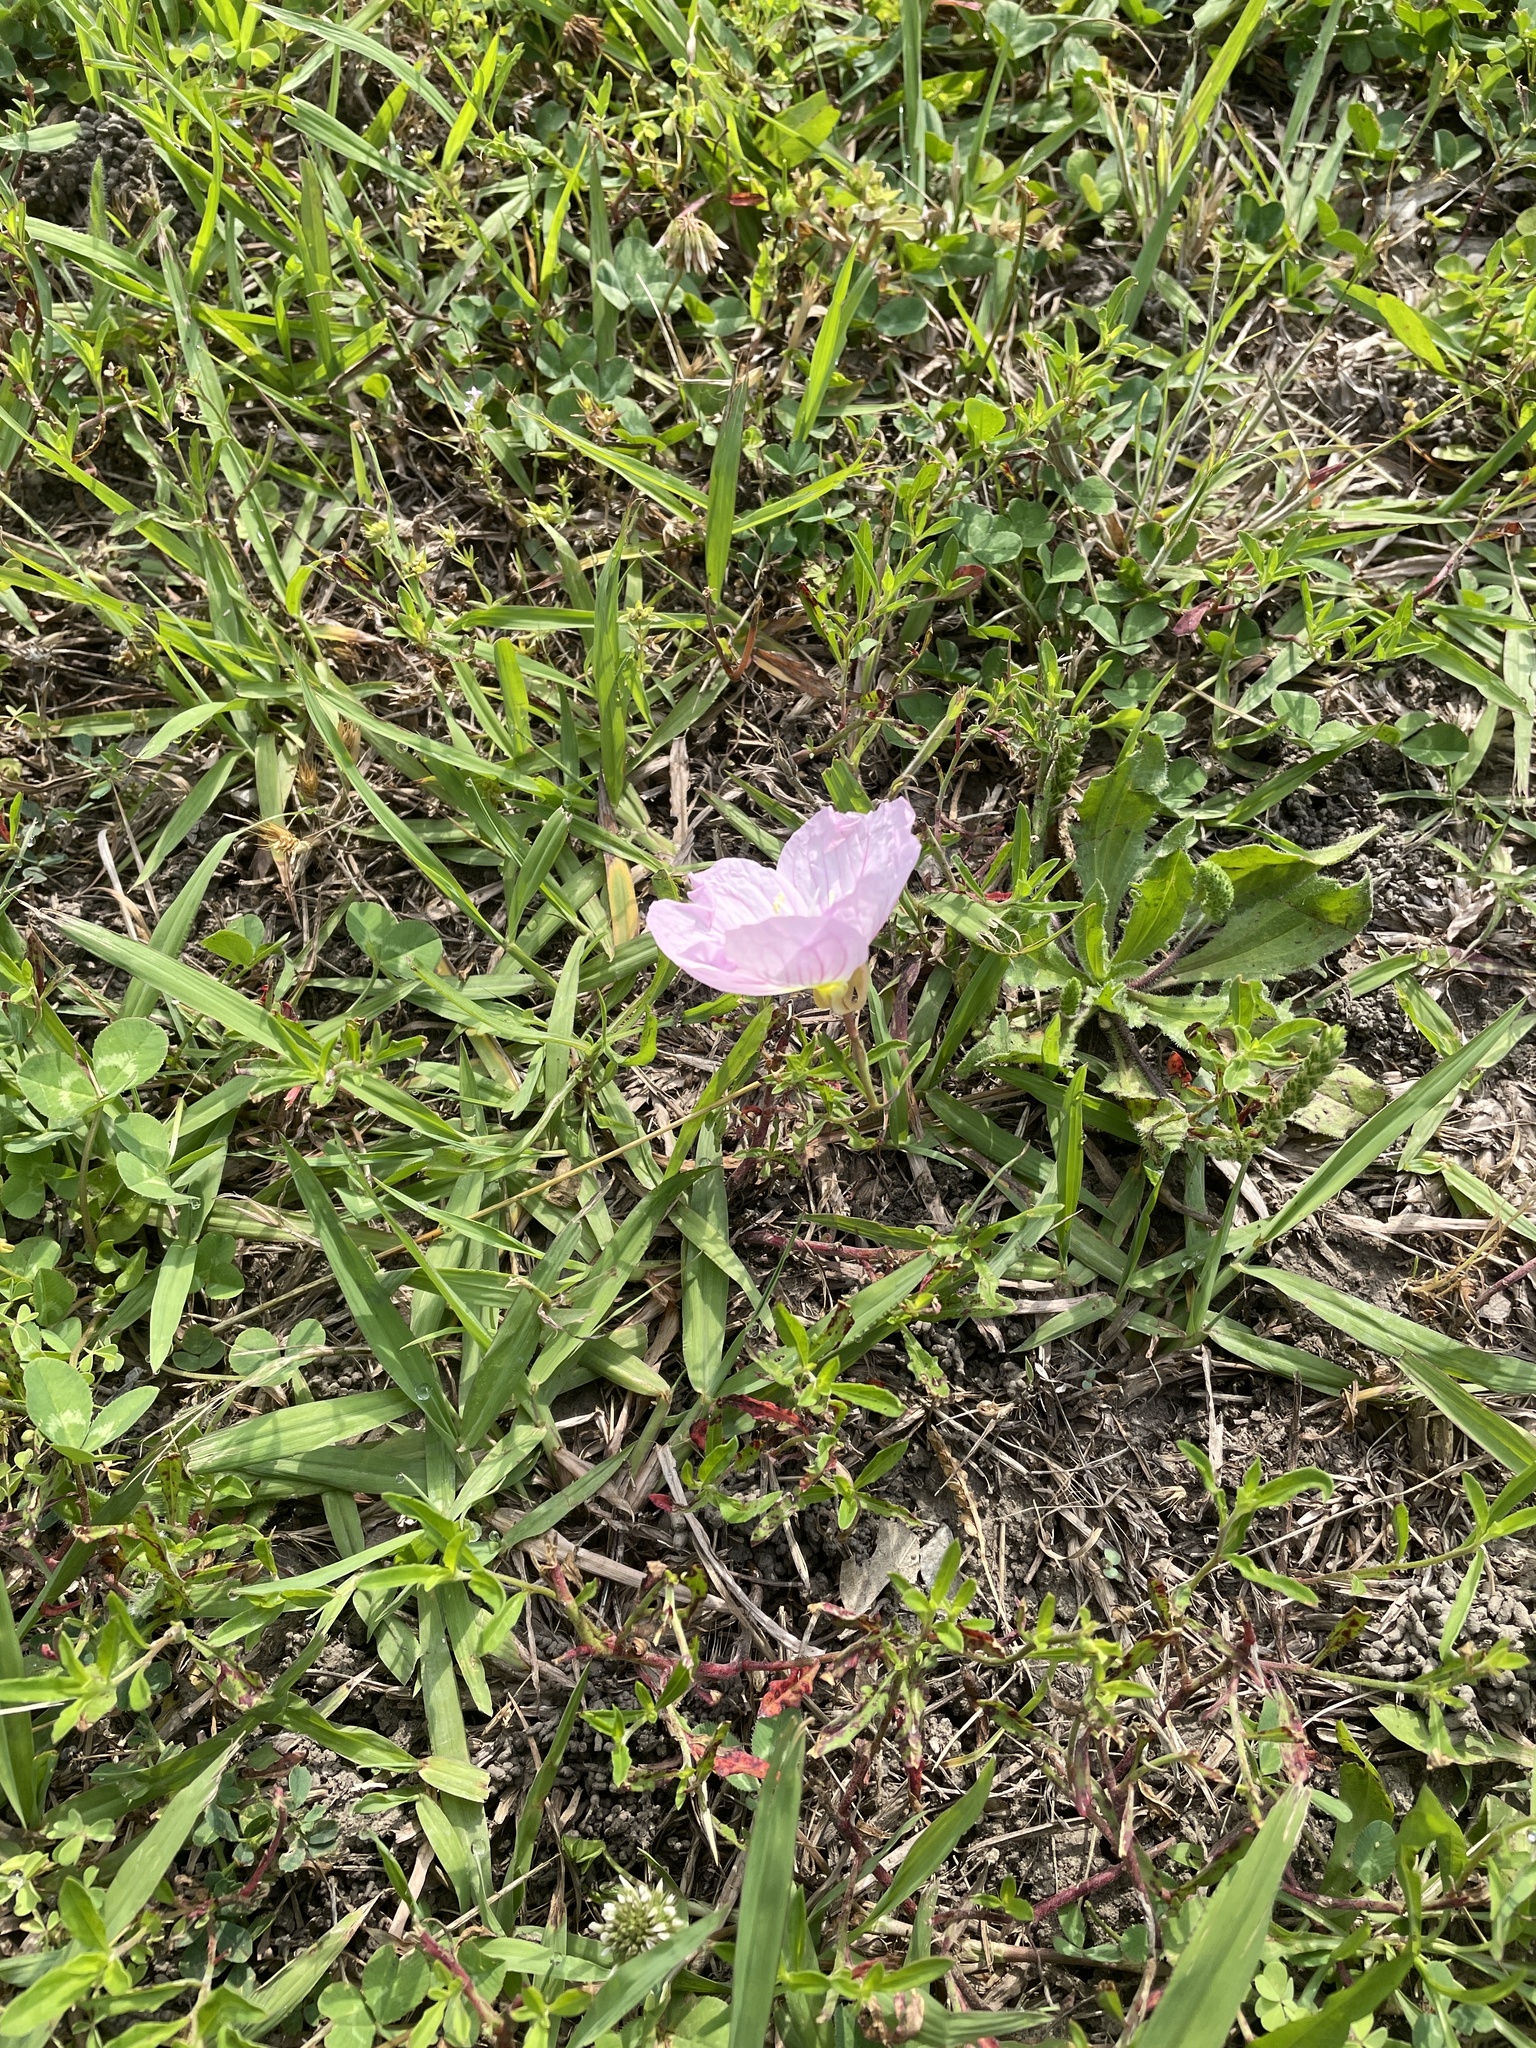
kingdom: Plantae
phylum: Tracheophyta
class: Magnoliopsida
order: Myrtales
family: Onagraceae
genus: Oenothera
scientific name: Oenothera speciosa
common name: White evening-primrose
